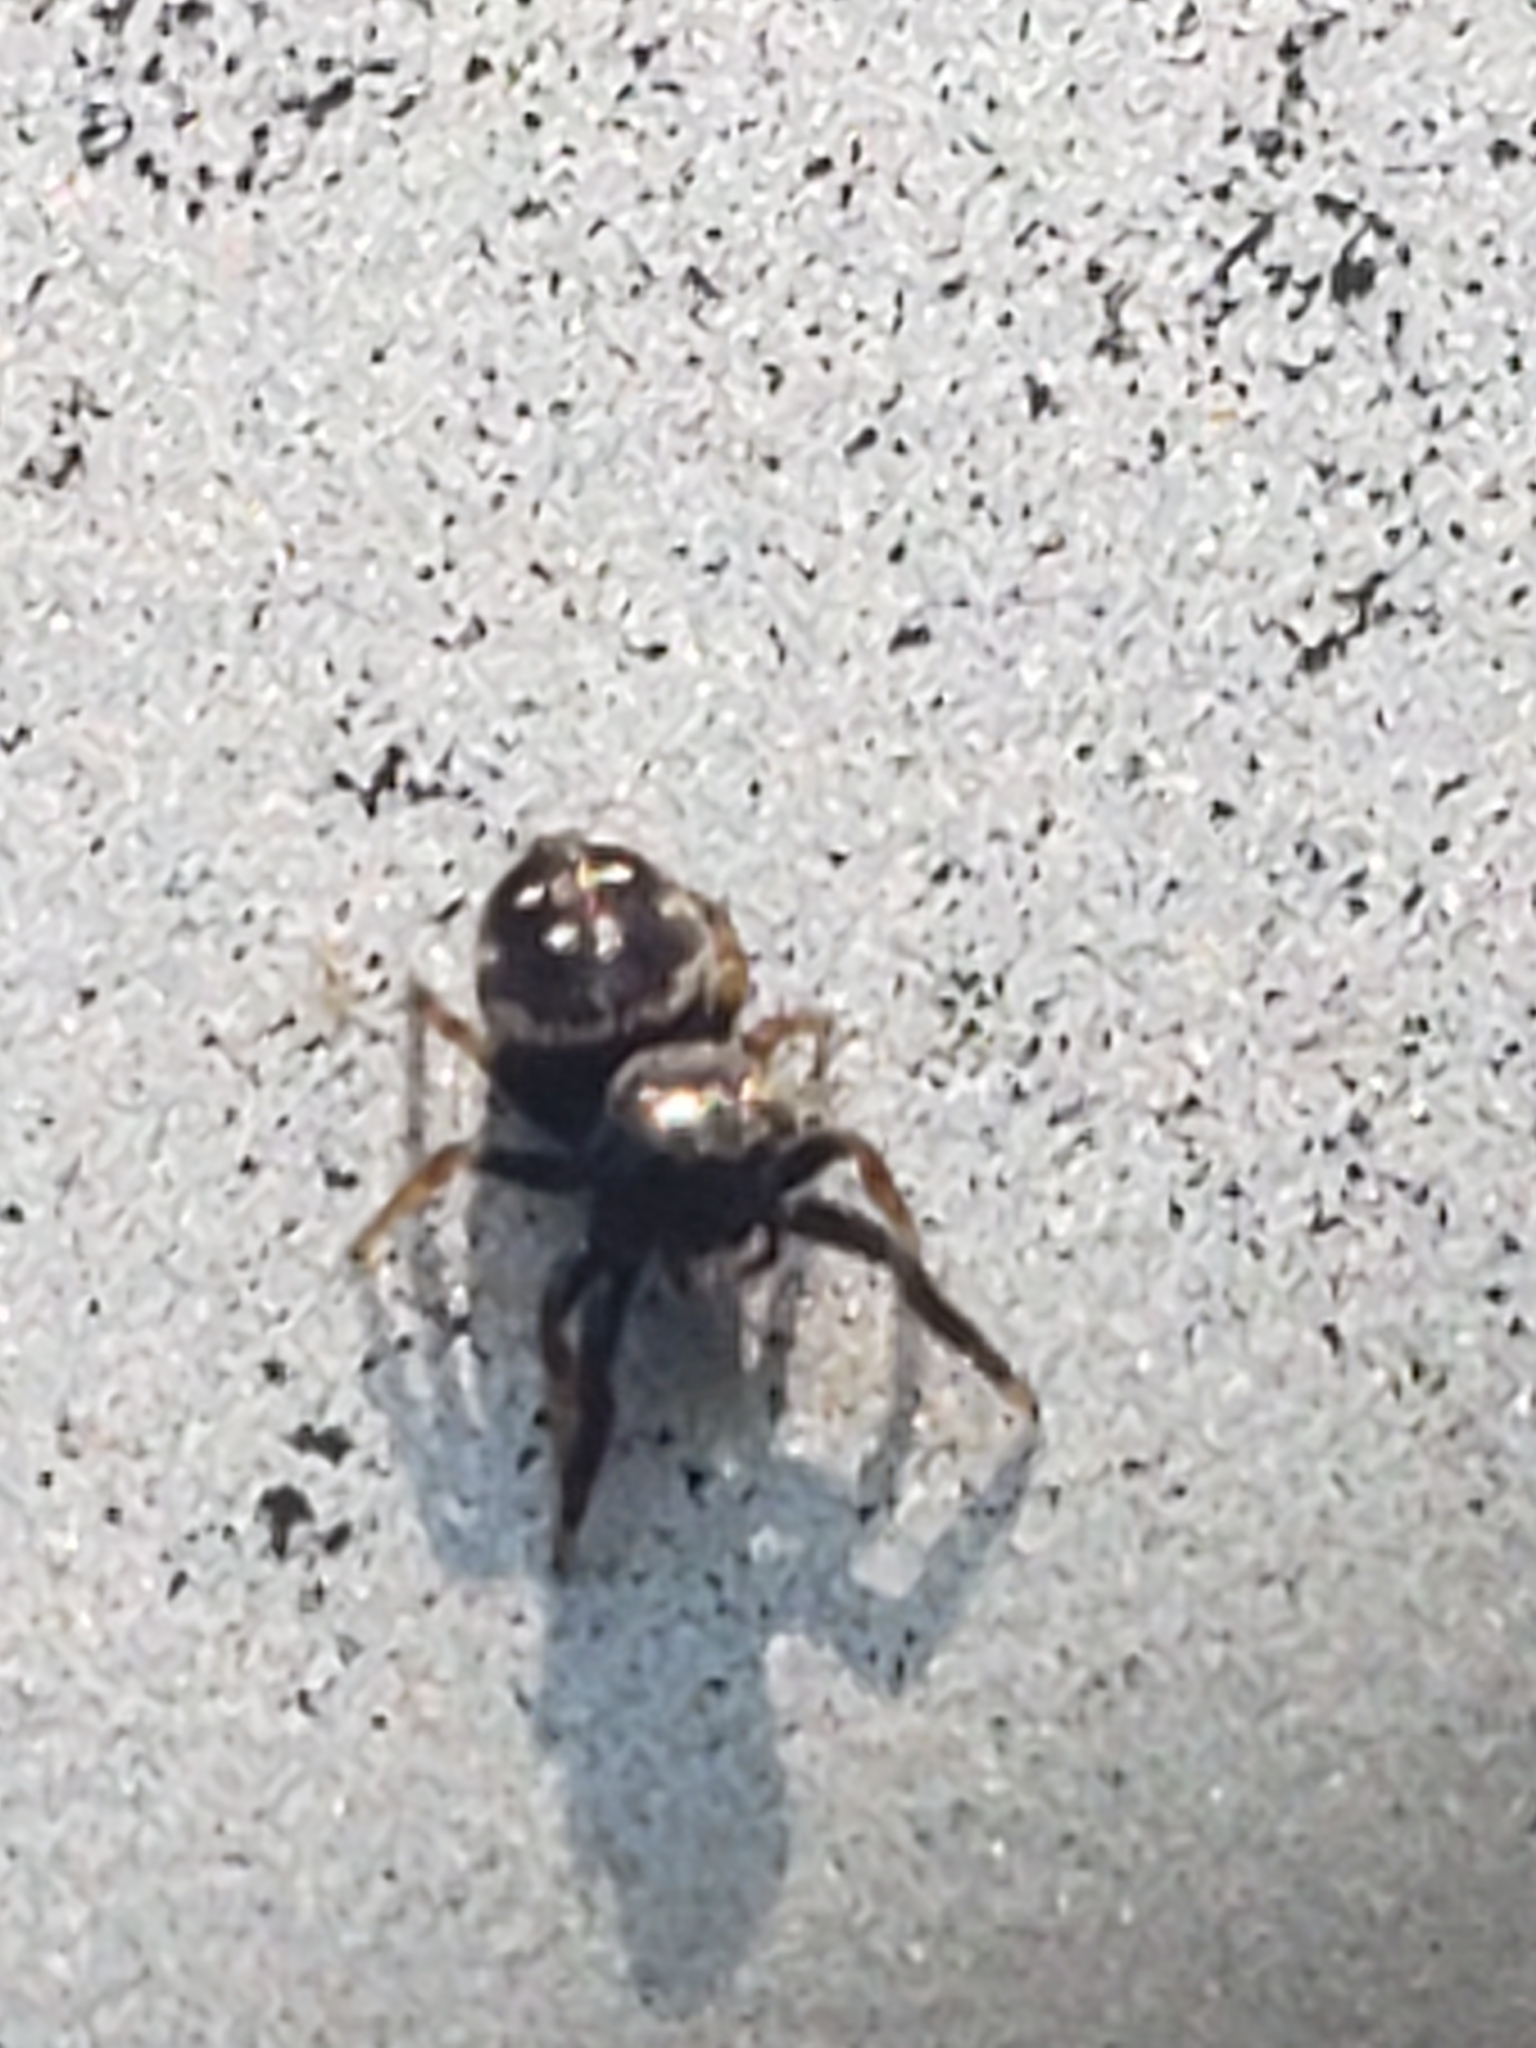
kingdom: Animalia
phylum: Arthropoda
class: Arachnida
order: Araneae
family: Salticidae
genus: Paraphidippus
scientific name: Paraphidippus aurantius
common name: Jumping spiders
